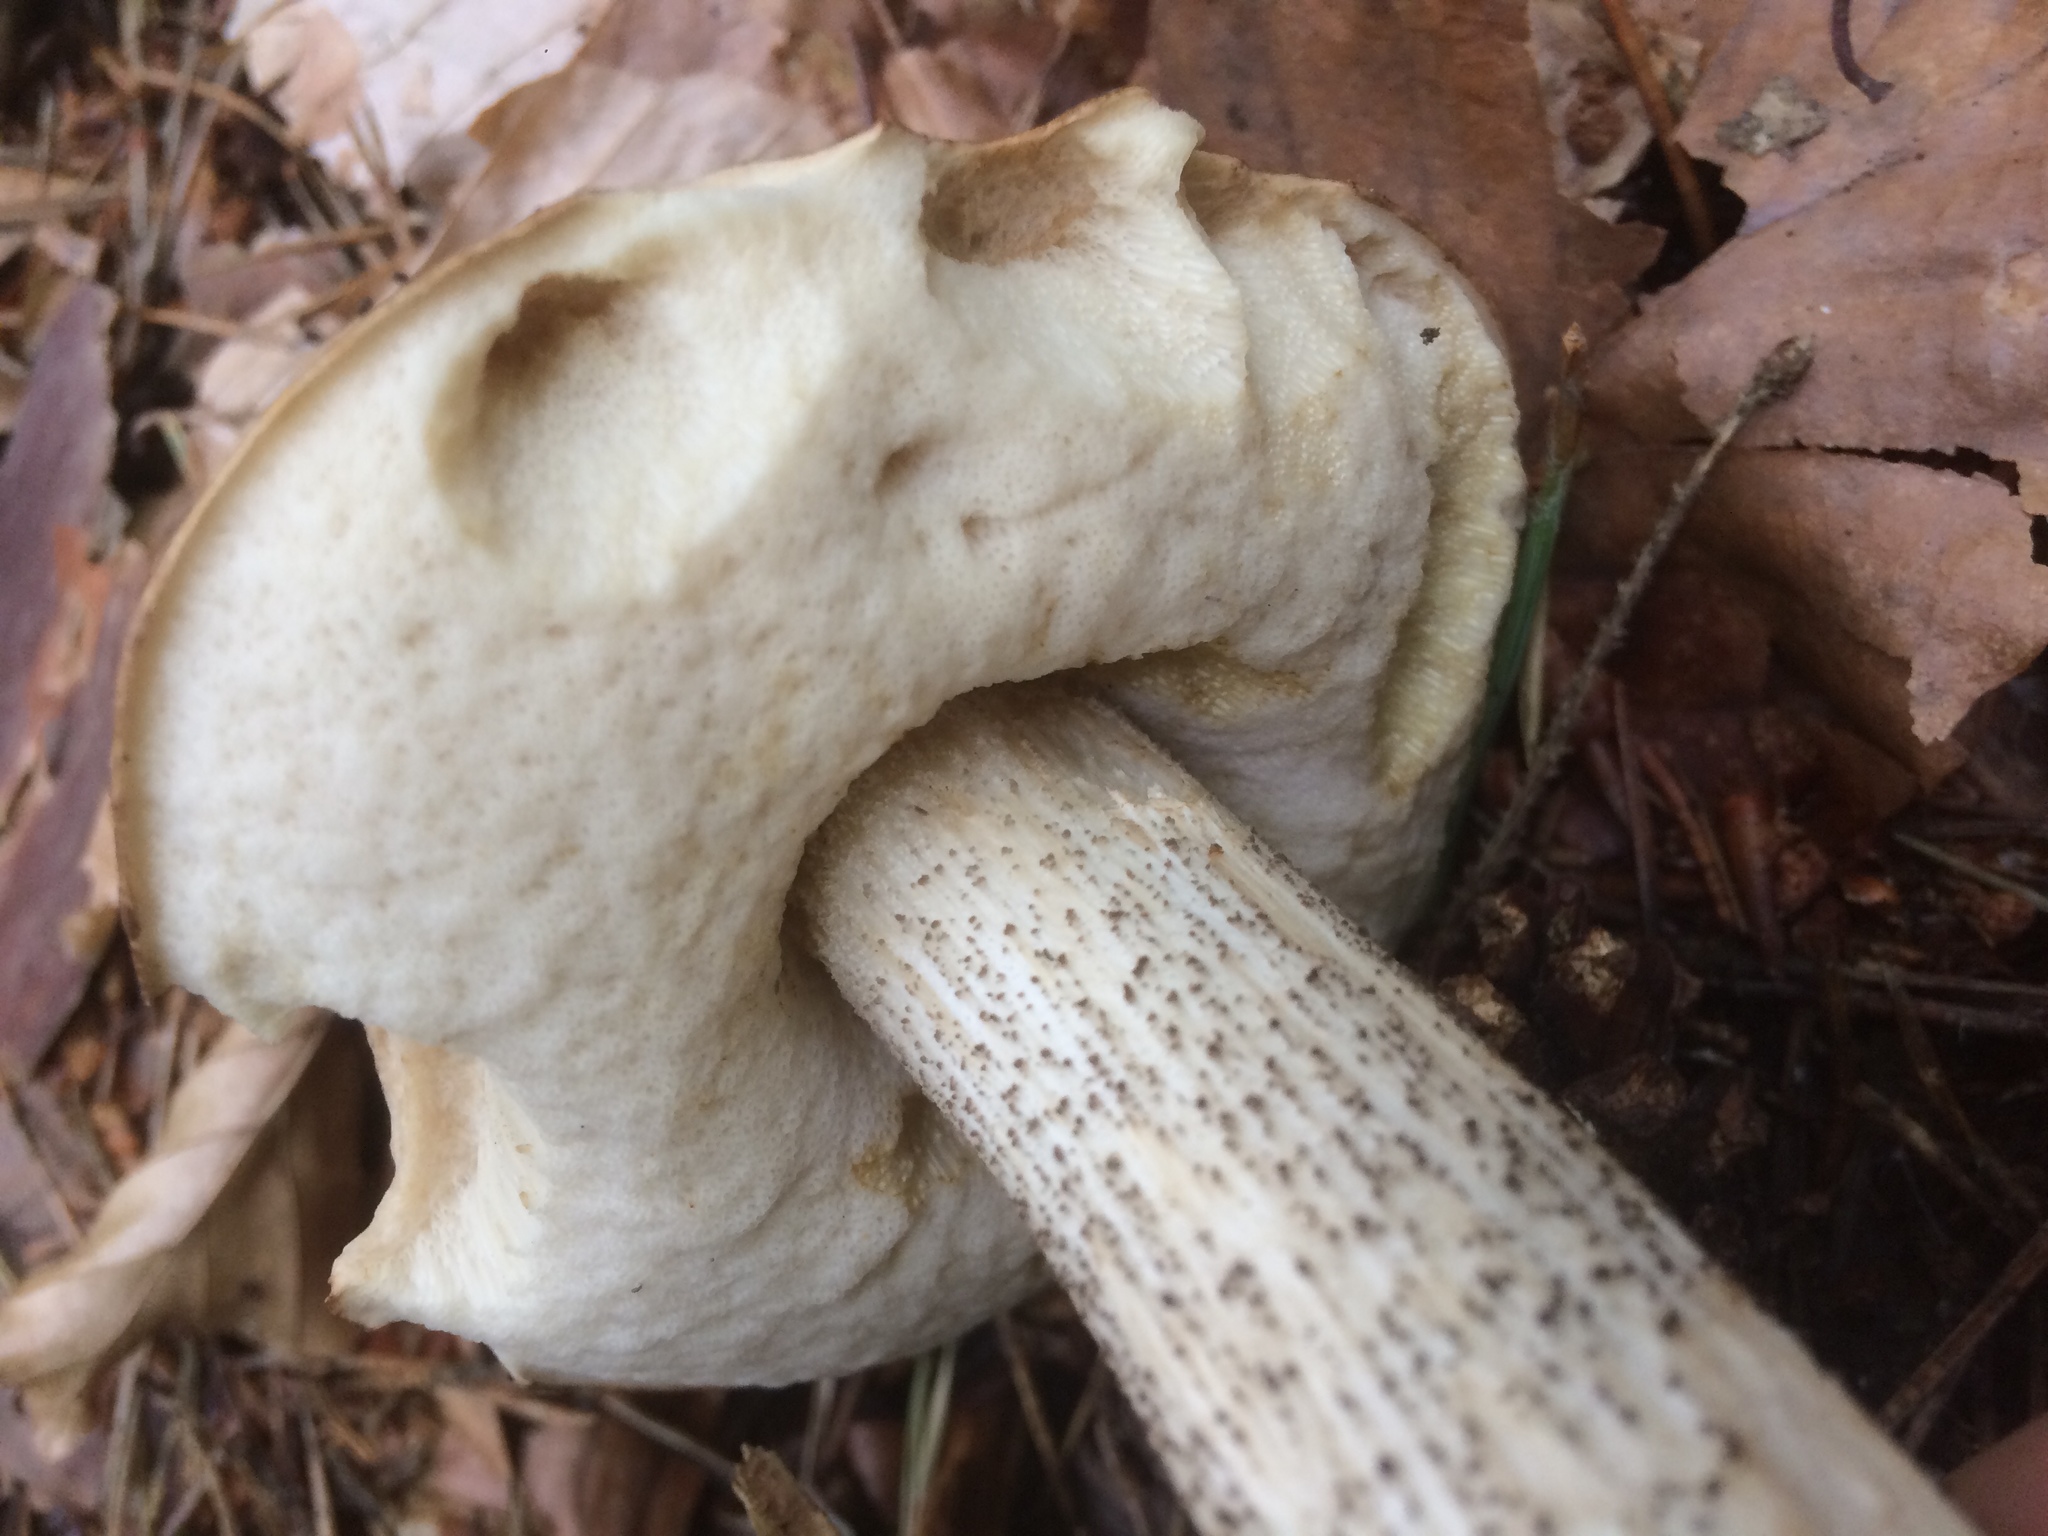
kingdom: Fungi
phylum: Basidiomycota
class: Agaricomycetes
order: Boletales
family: Boletaceae
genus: Leccinum
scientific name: Leccinum scabrum
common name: Blushing bolete
